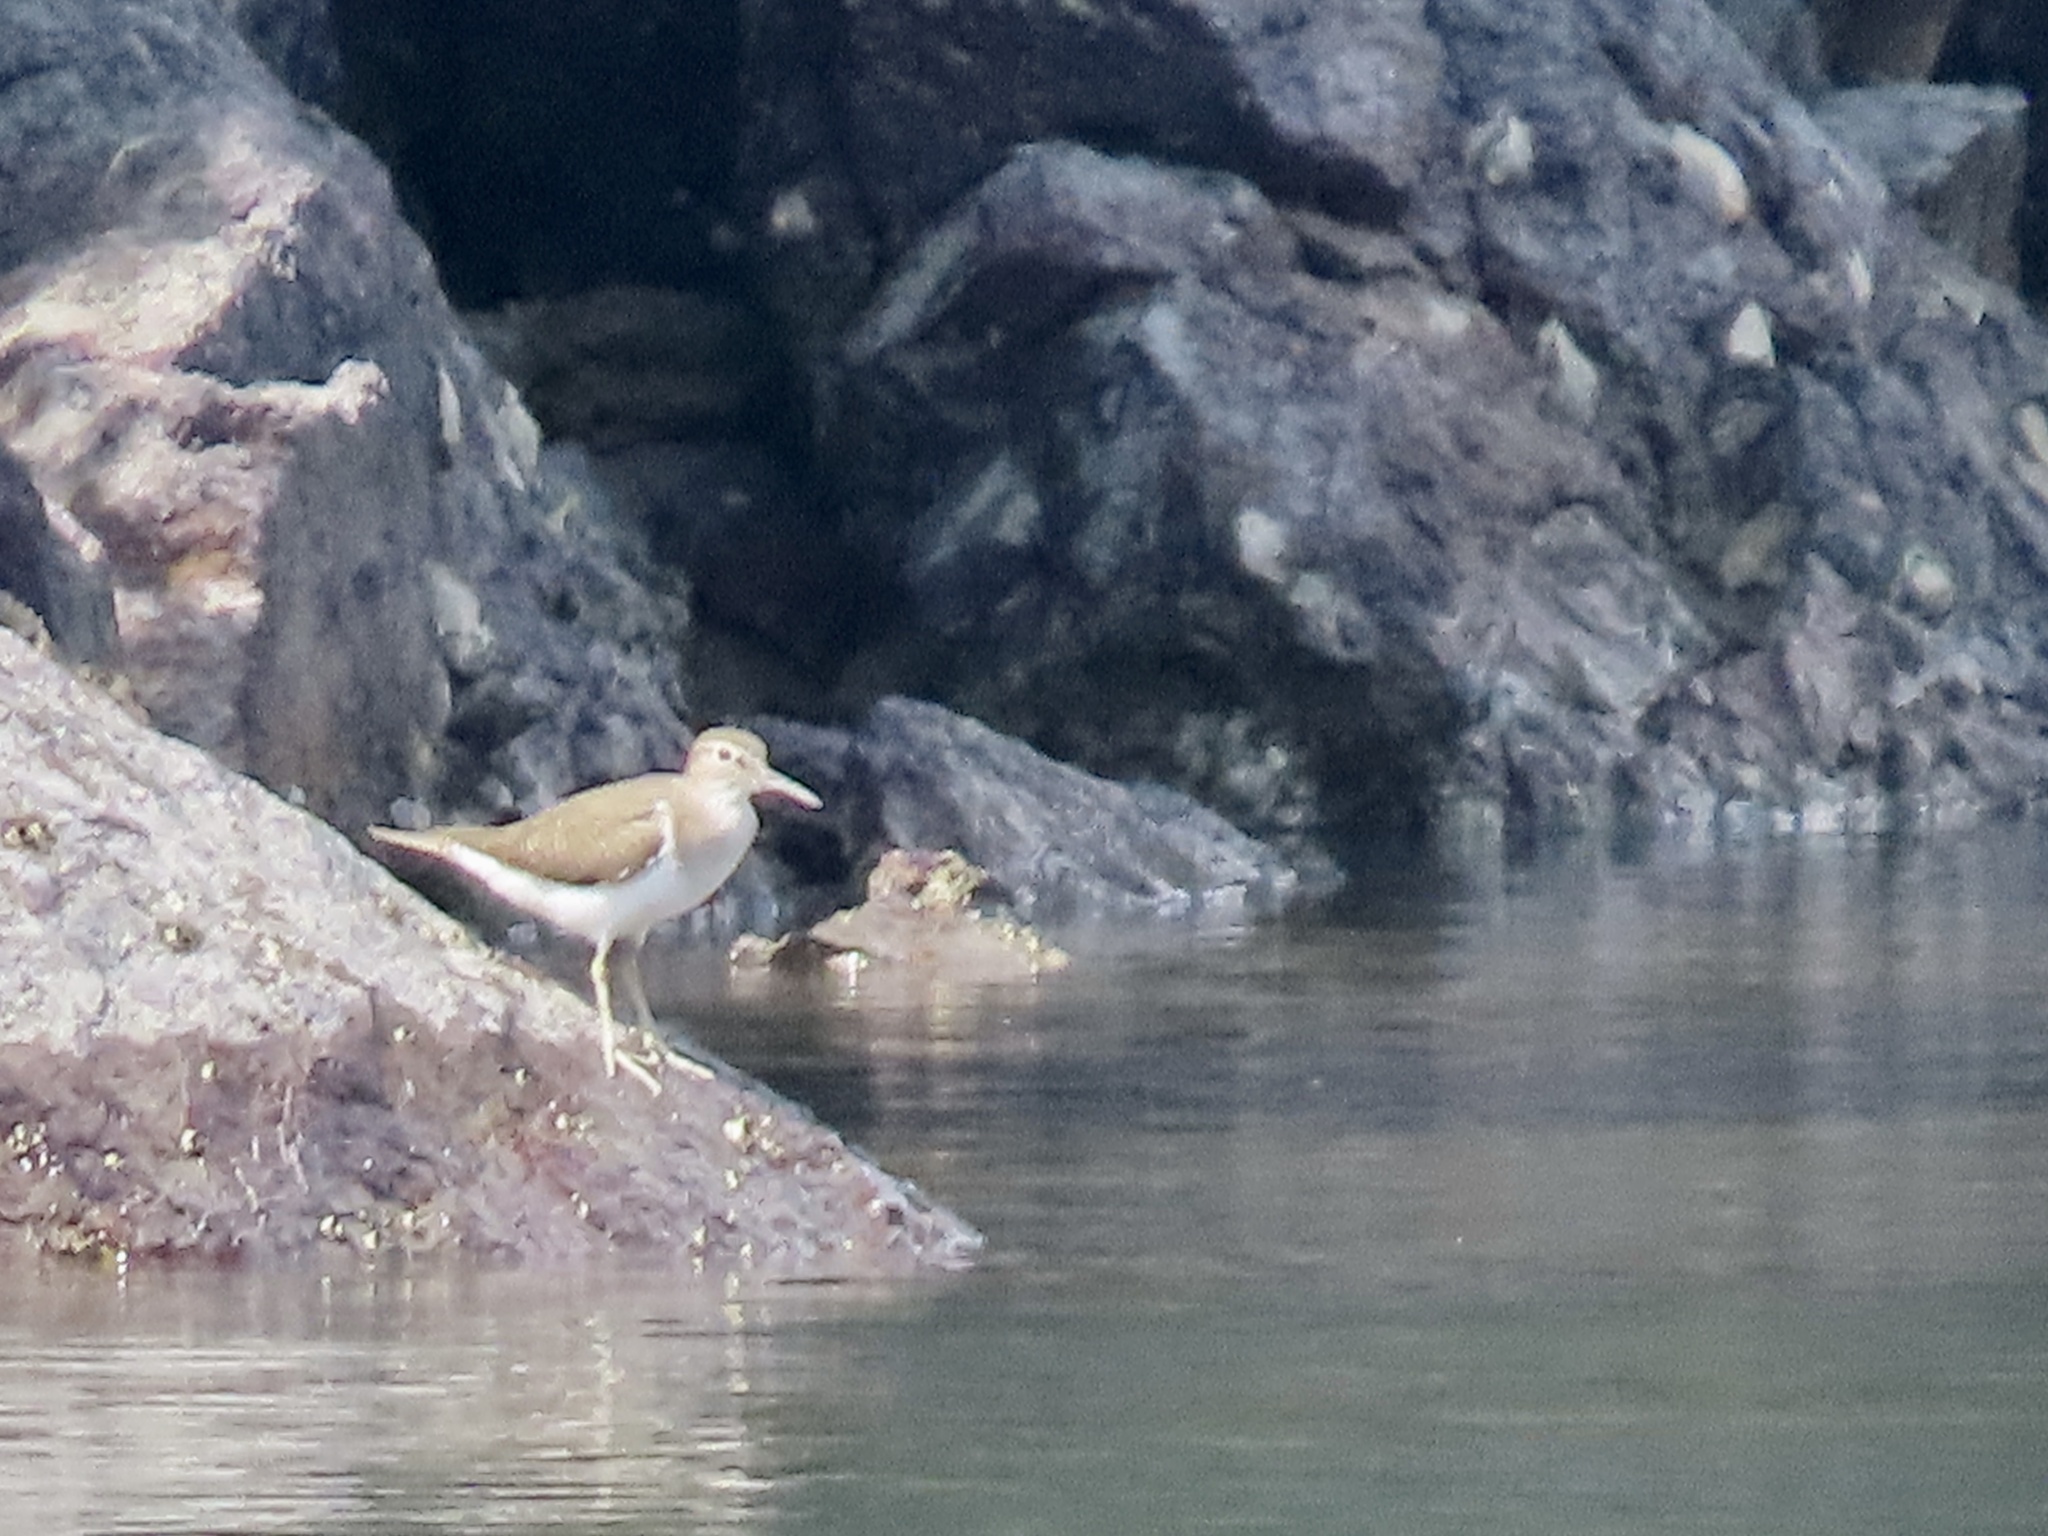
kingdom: Animalia
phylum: Chordata
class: Aves
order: Charadriiformes
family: Scolopacidae
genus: Actitis
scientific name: Actitis hypoleucos
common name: Common sandpiper
